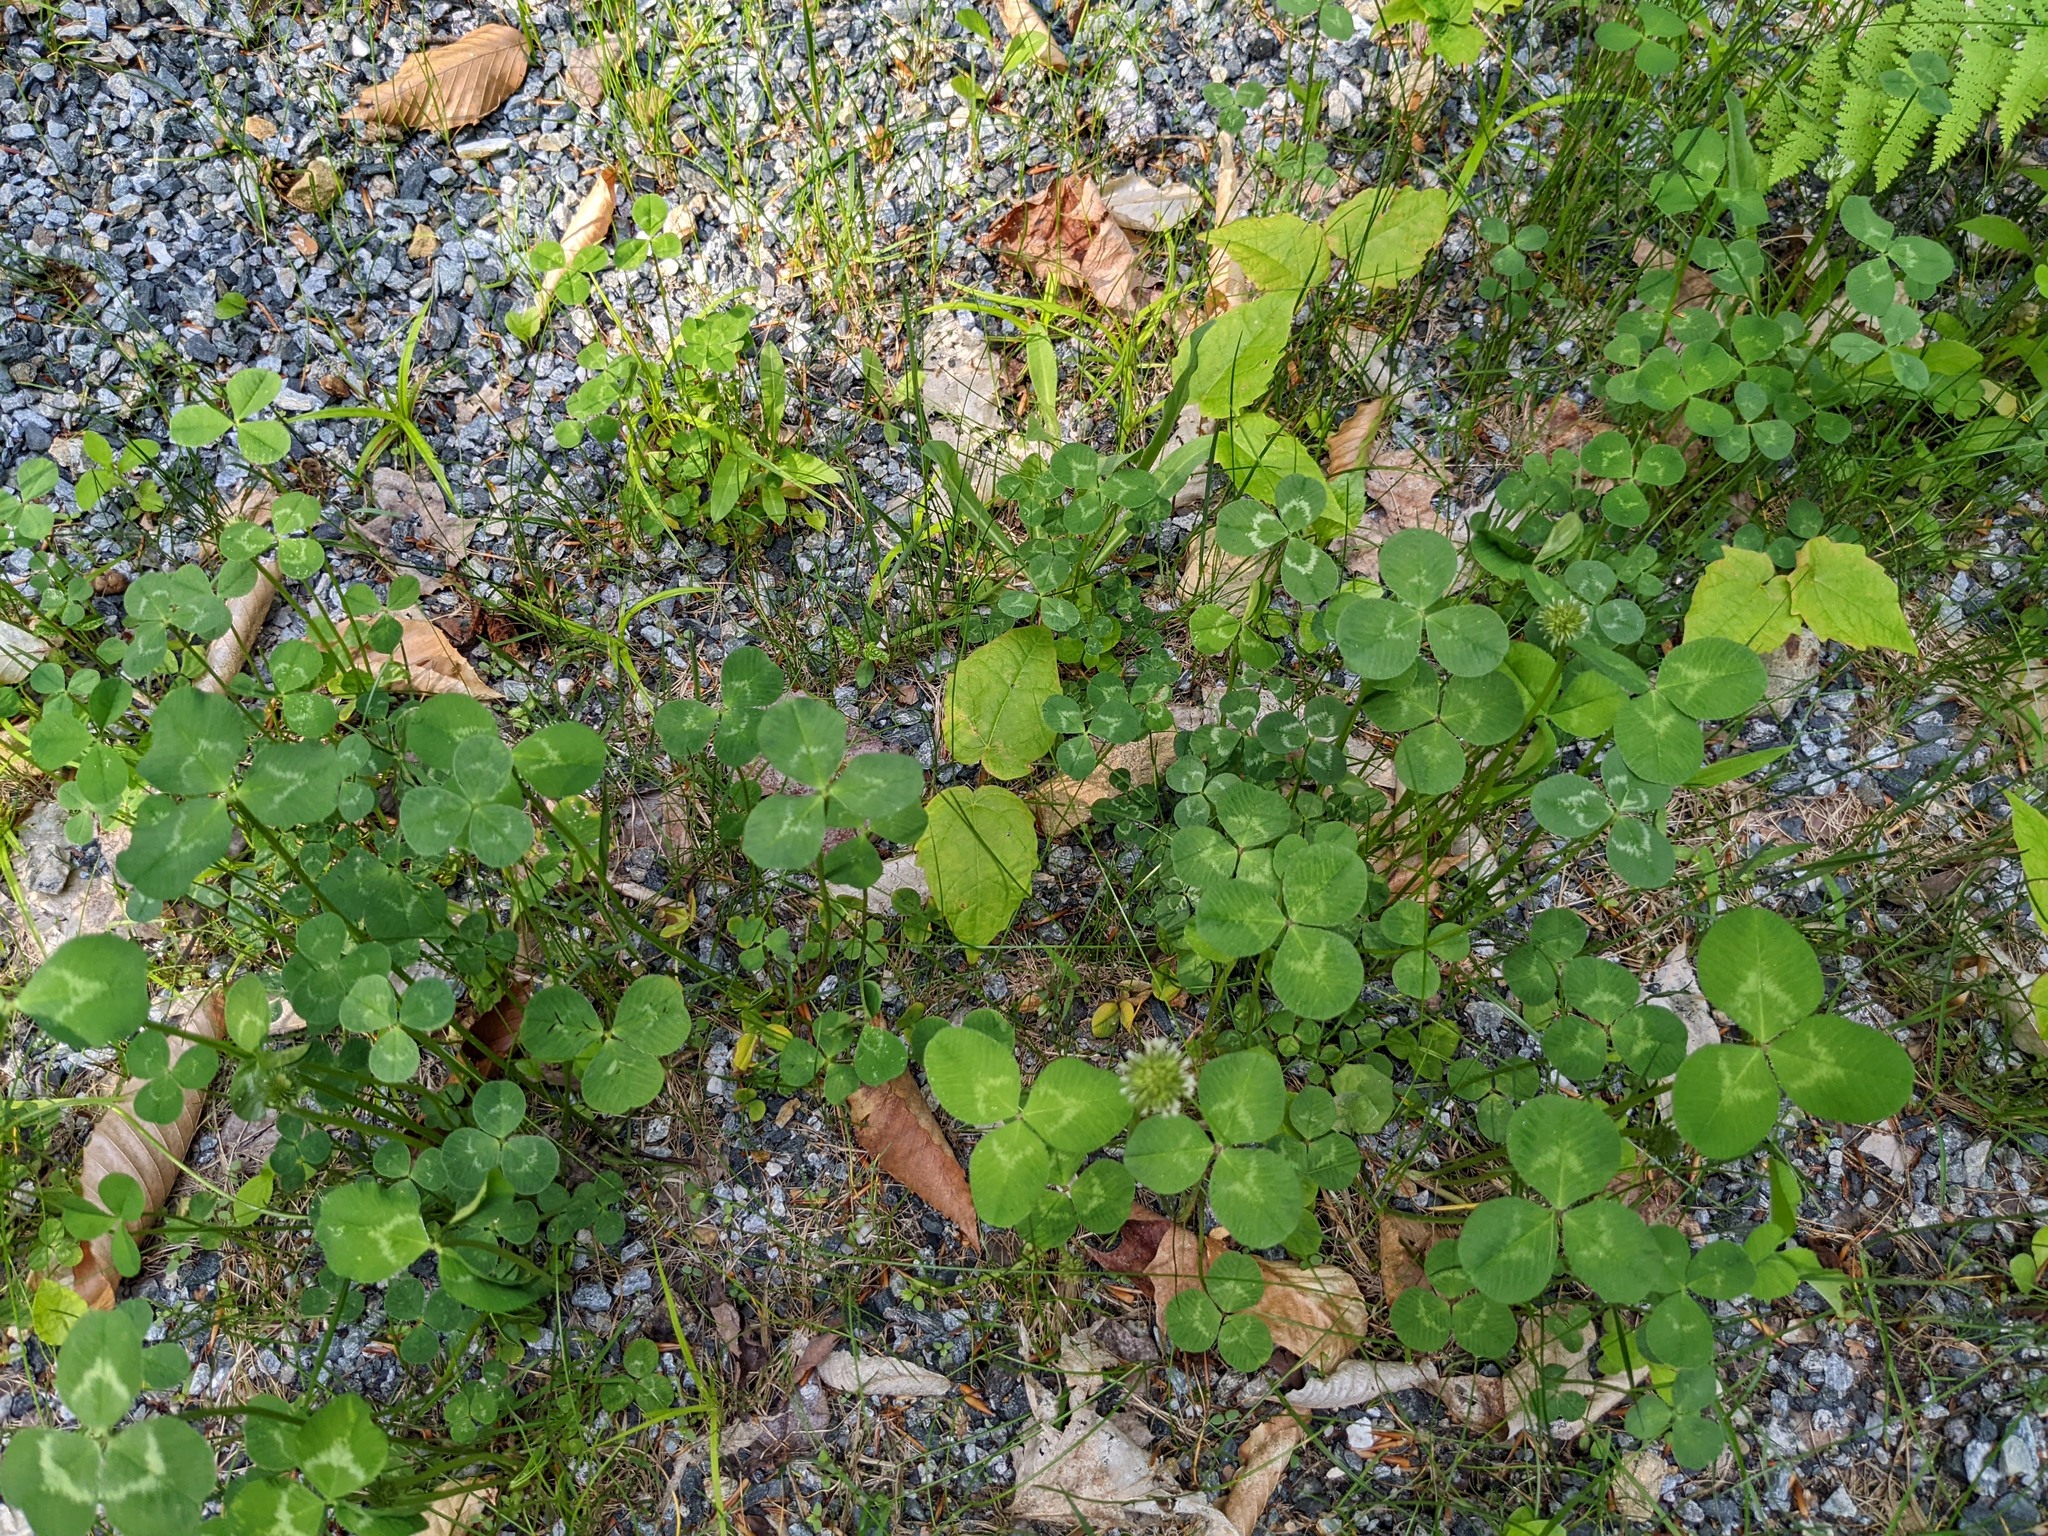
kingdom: Plantae
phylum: Tracheophyta
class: Magnoliopsida
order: Fabales
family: Fabaceae
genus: Trifolium
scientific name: Trifolium repens
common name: White clover
